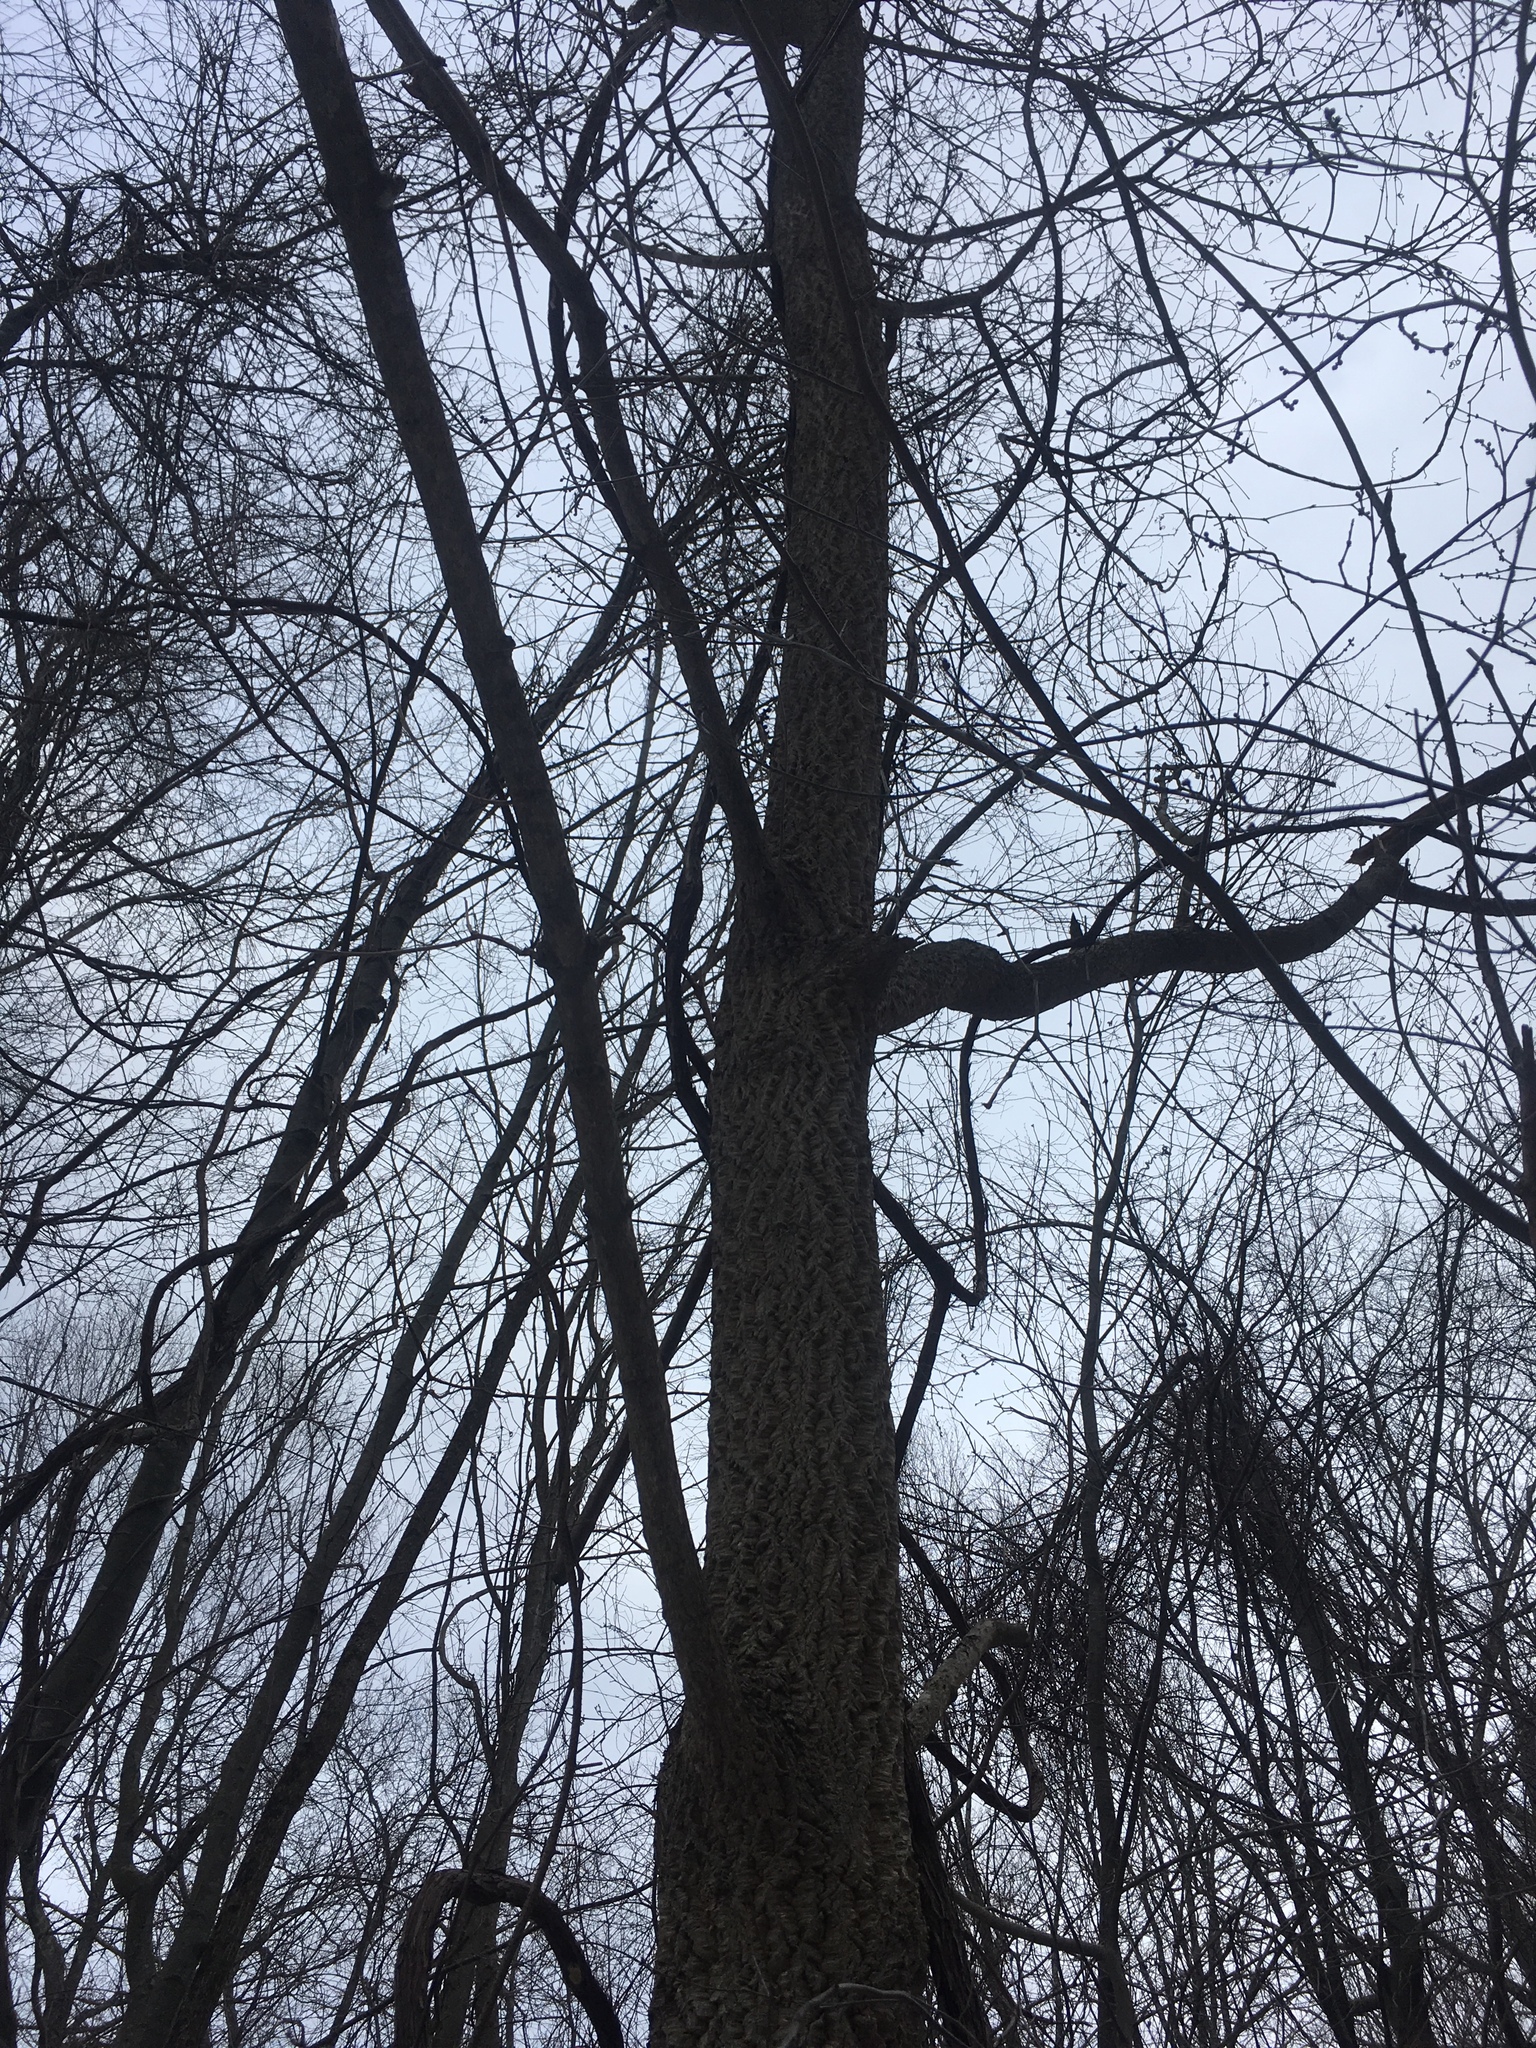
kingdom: Plantae
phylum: Tracheophyta
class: Magnoliopsida
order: Rosales
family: Cannabaceae
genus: Celtis
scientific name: Celtis occidentalis
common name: Common hackberry
